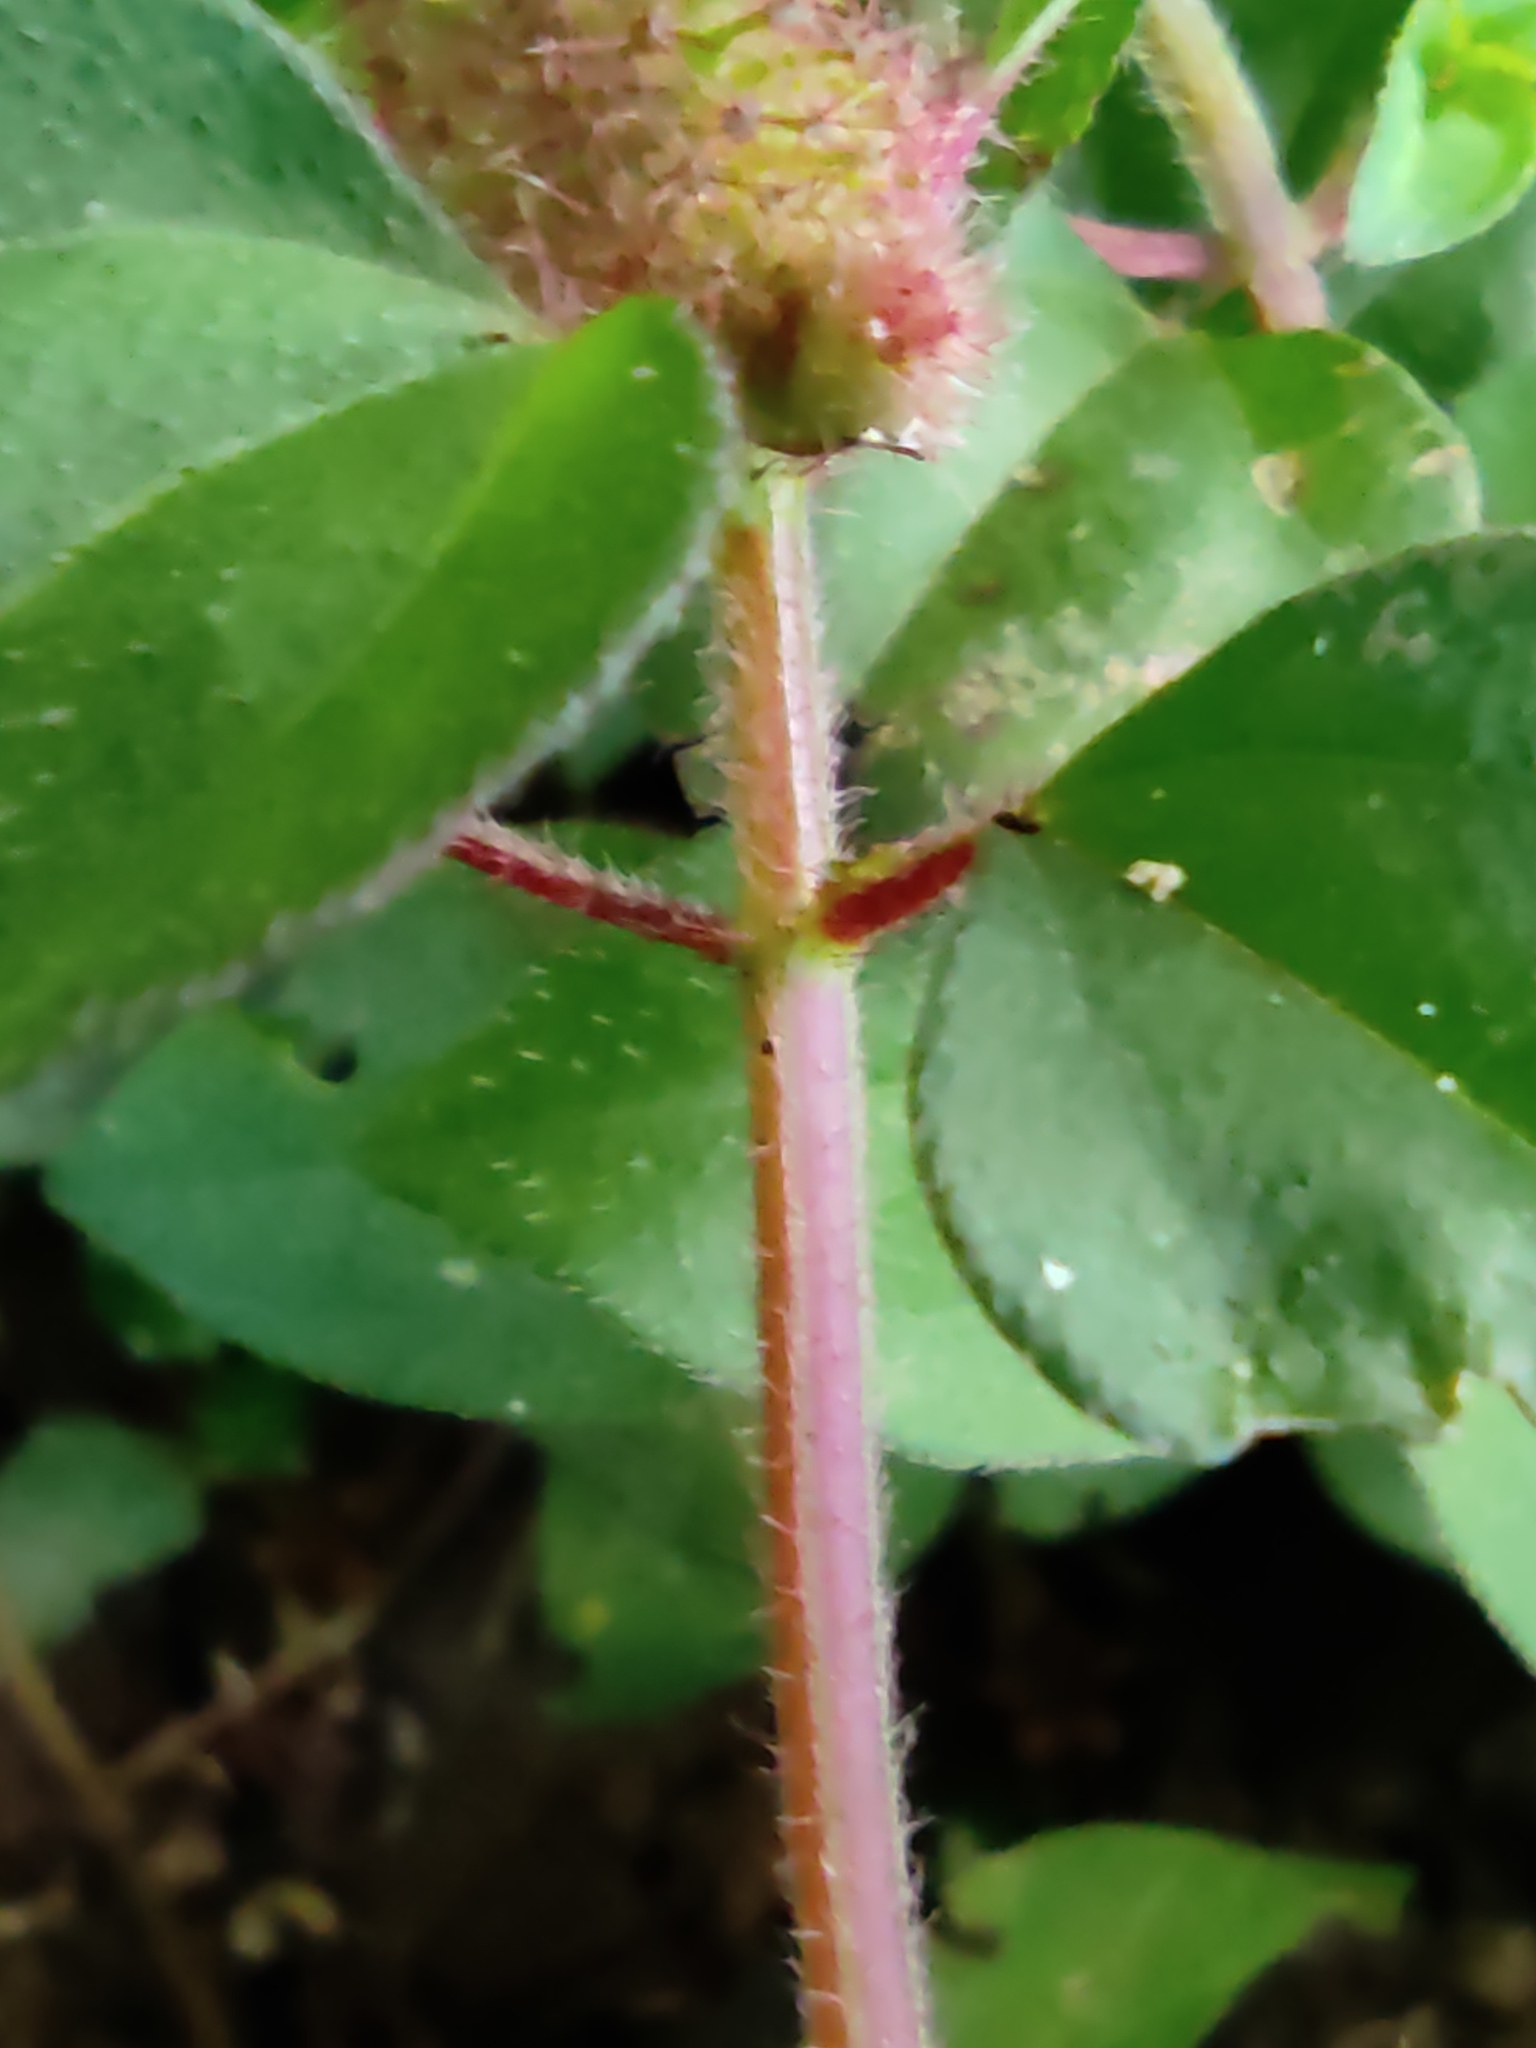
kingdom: Plantae
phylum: Tracheophyta
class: Magnoliopsida
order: Myrtales
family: Melastomataceae
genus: Heterotis
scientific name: Heterotis rotundifolia
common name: Pinklady
